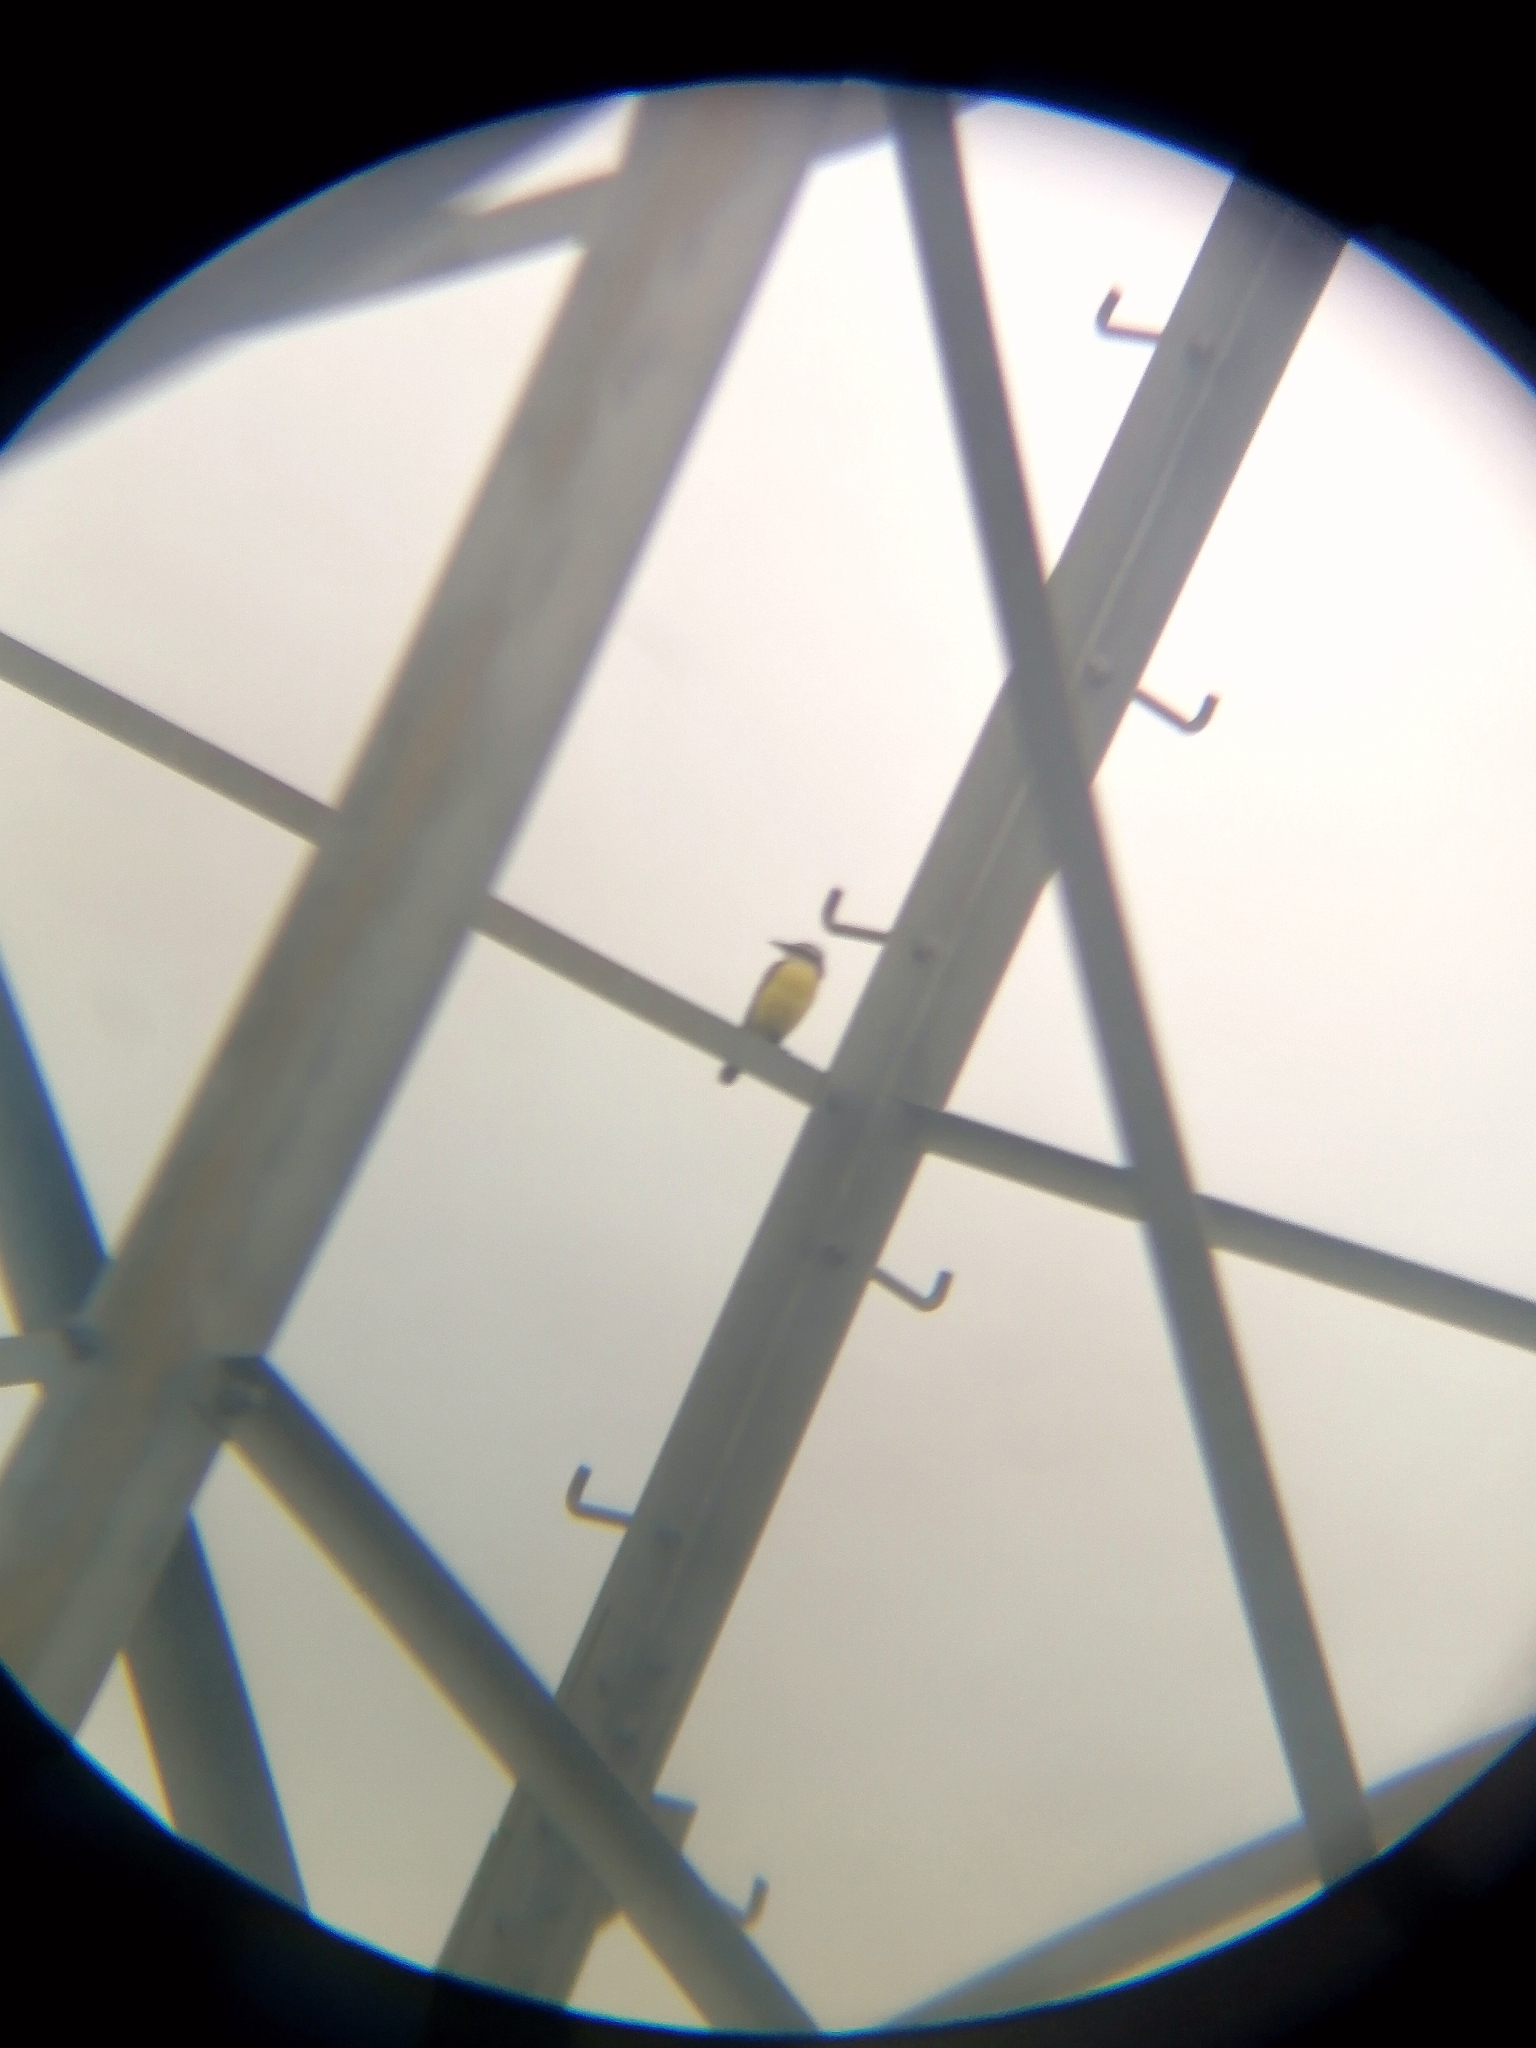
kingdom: Animalia
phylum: Chordata
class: Aves
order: Passeriformes
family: Tyrannidae
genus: Pitangus
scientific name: Pitangus sulphuratus
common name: Great kiskadee
